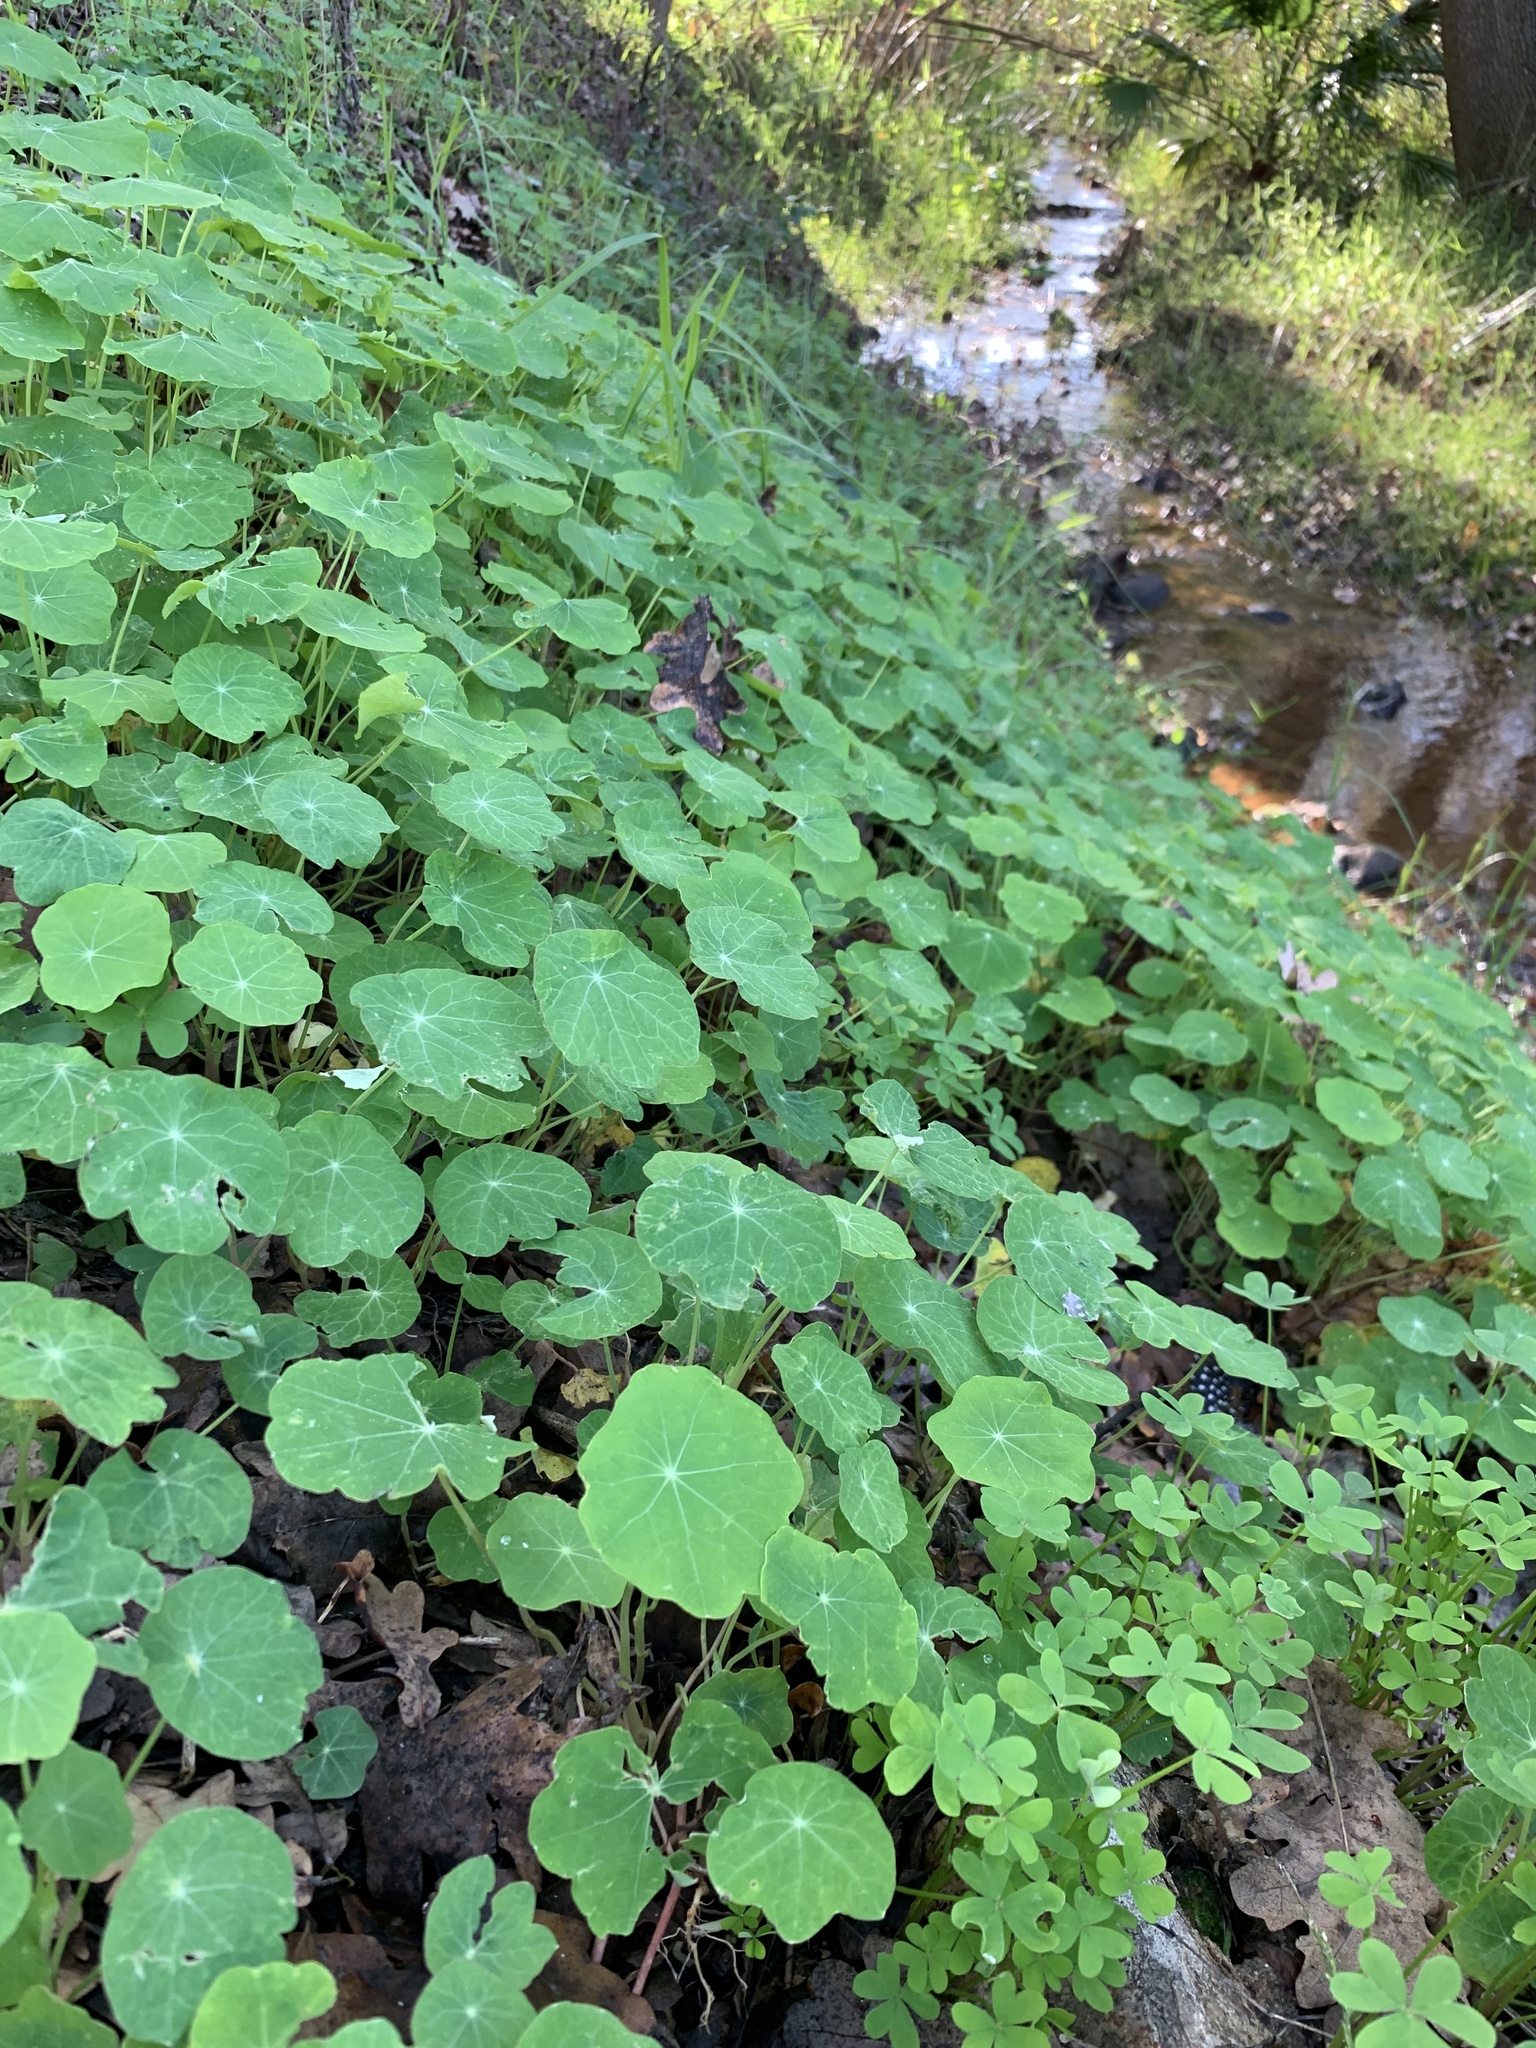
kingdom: Plantae
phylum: Tracheophyta
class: Magnoliopsida
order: Brassicales
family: Tropaeolaceae
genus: Tropaeolum
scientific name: Tropaeolum majus
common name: Nasturtium
